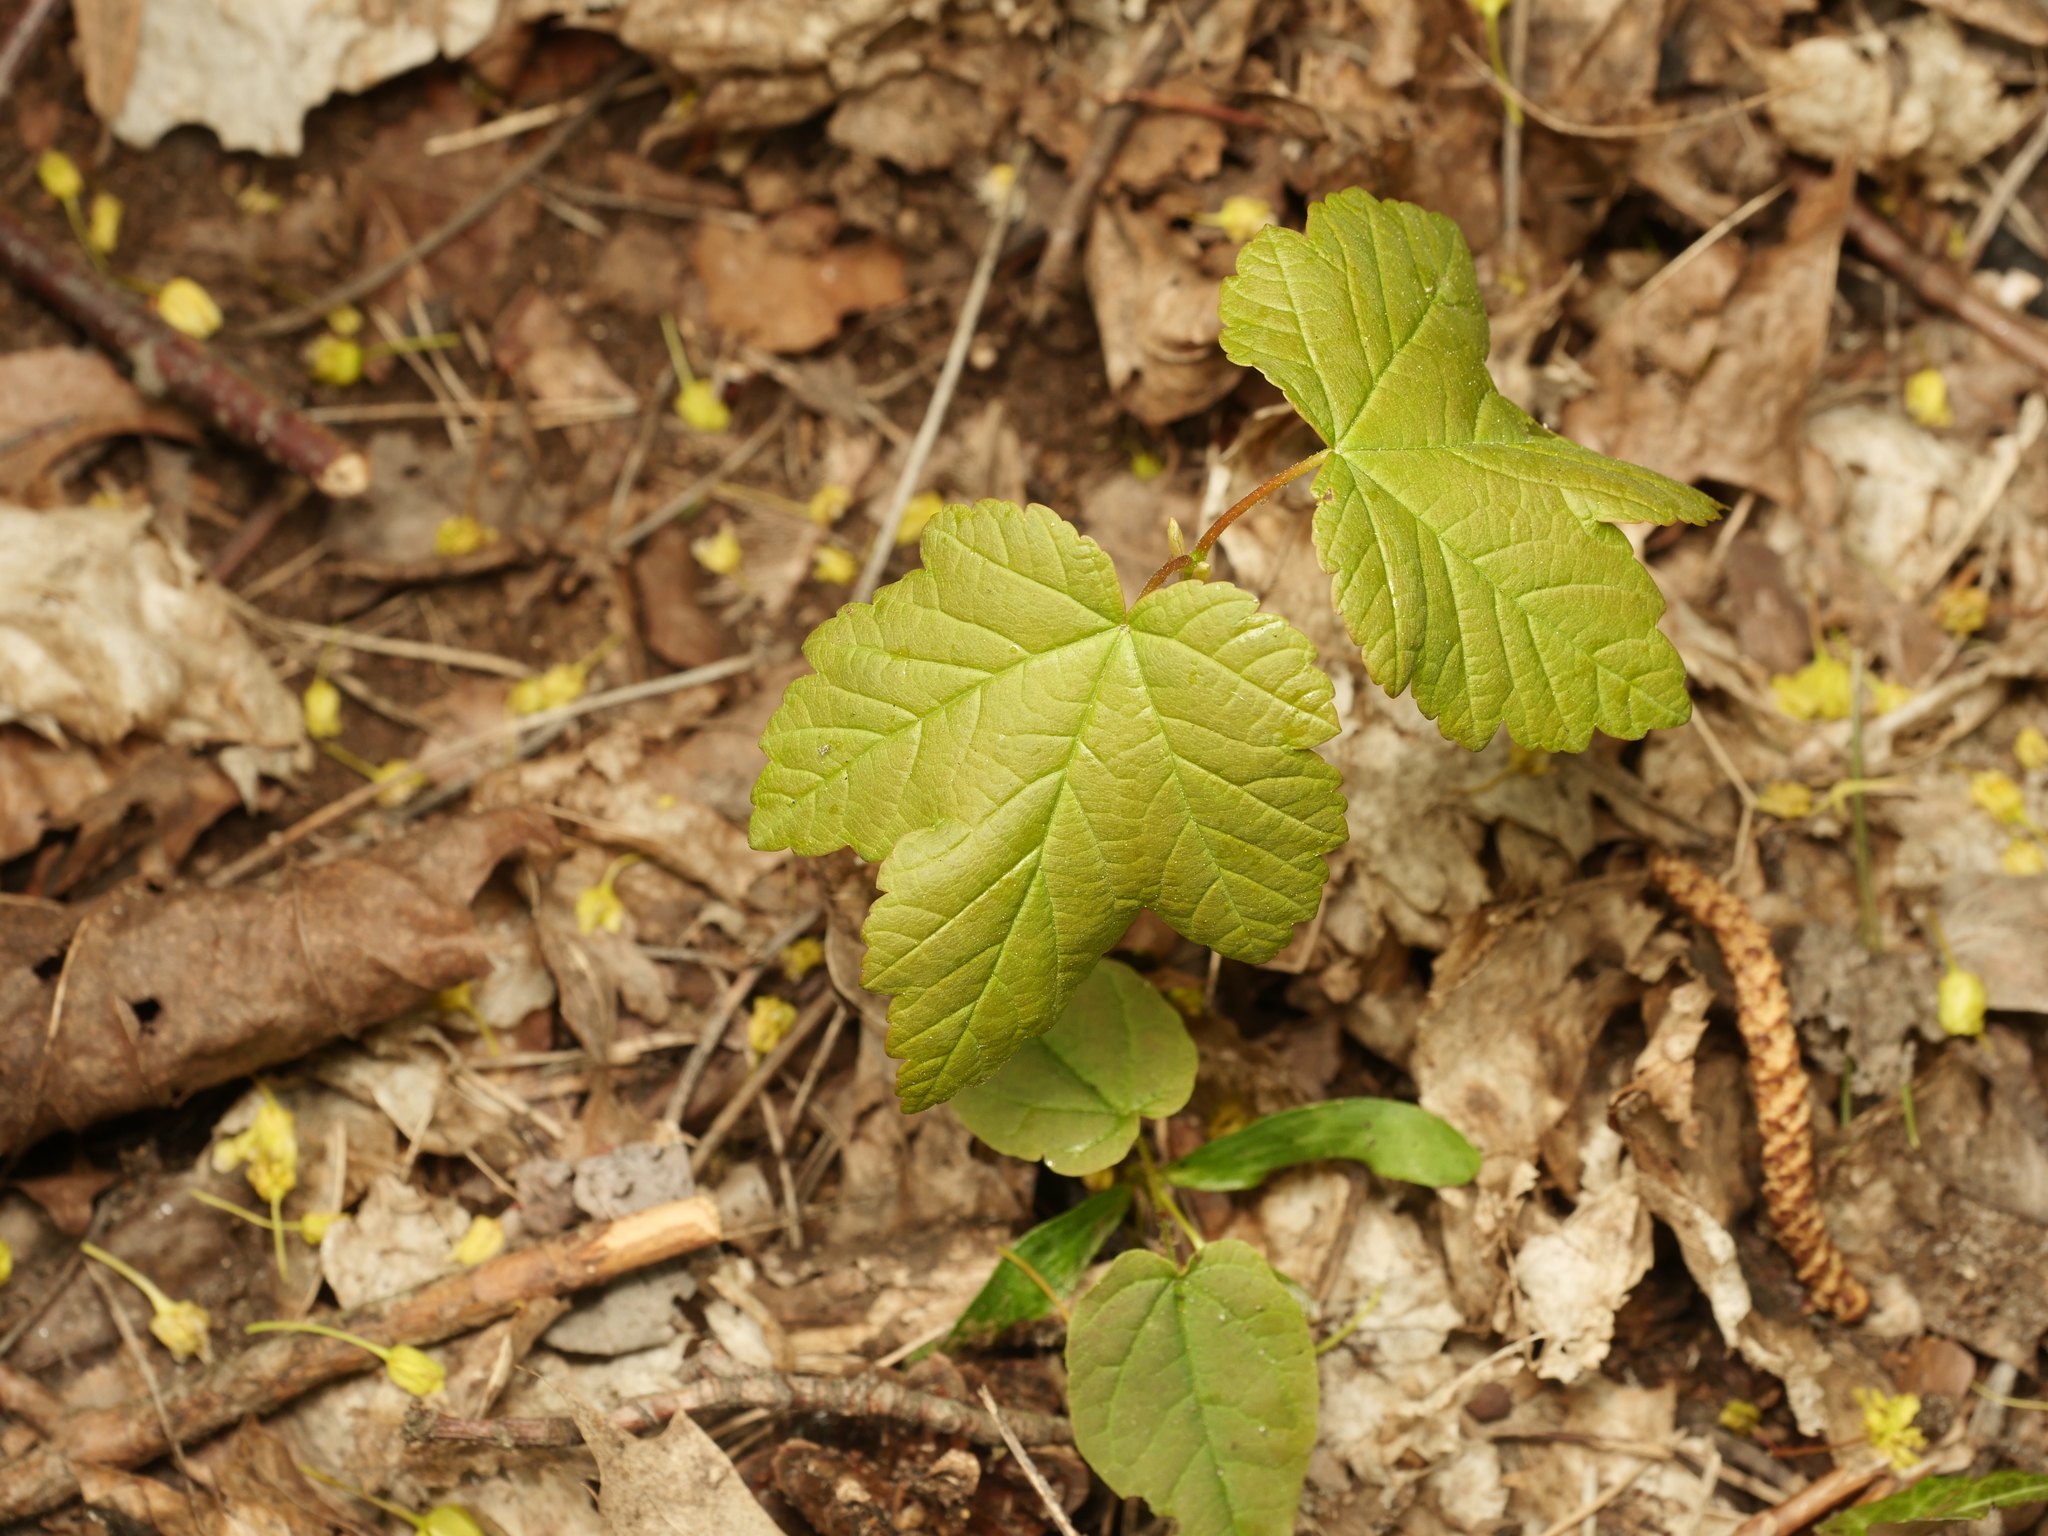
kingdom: Plantae
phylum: Tracheophyta
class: Magnoliopsida
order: Sapindales
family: Sapindaceae
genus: Acer
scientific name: Acer pseudoplatanus
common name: Sycamore
